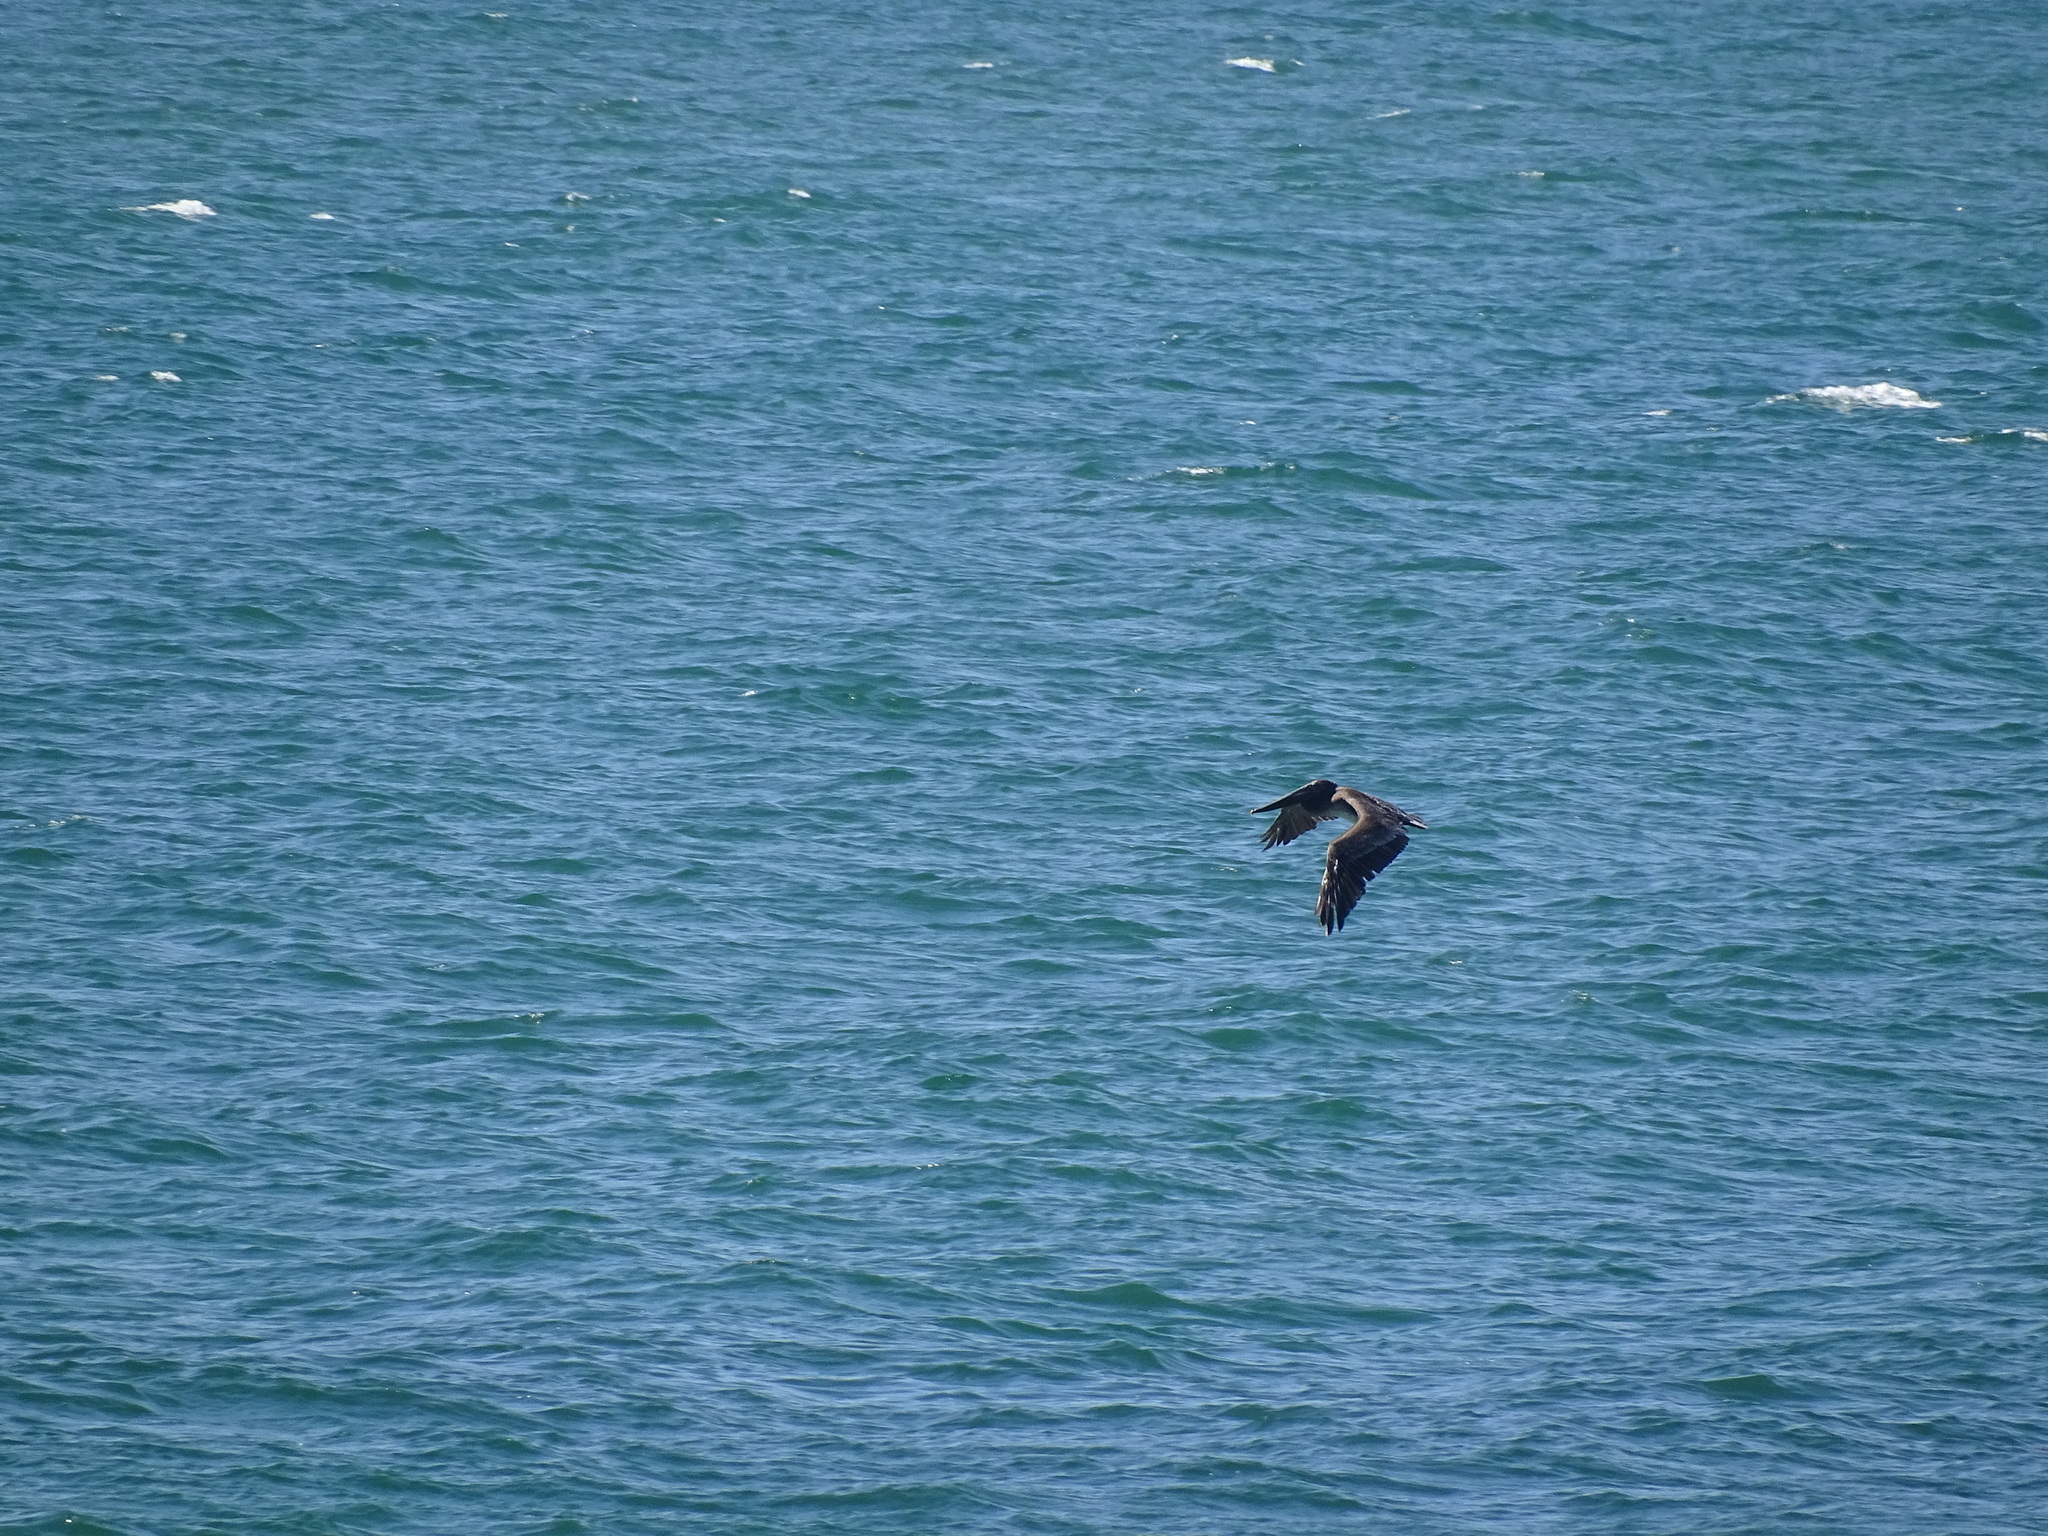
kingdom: Animalia
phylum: Chordata
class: Aves
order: Pelecaniformes
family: Pelecanidae
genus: Pelecanus
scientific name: Pelecanus occidentalis
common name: Brown pelican
